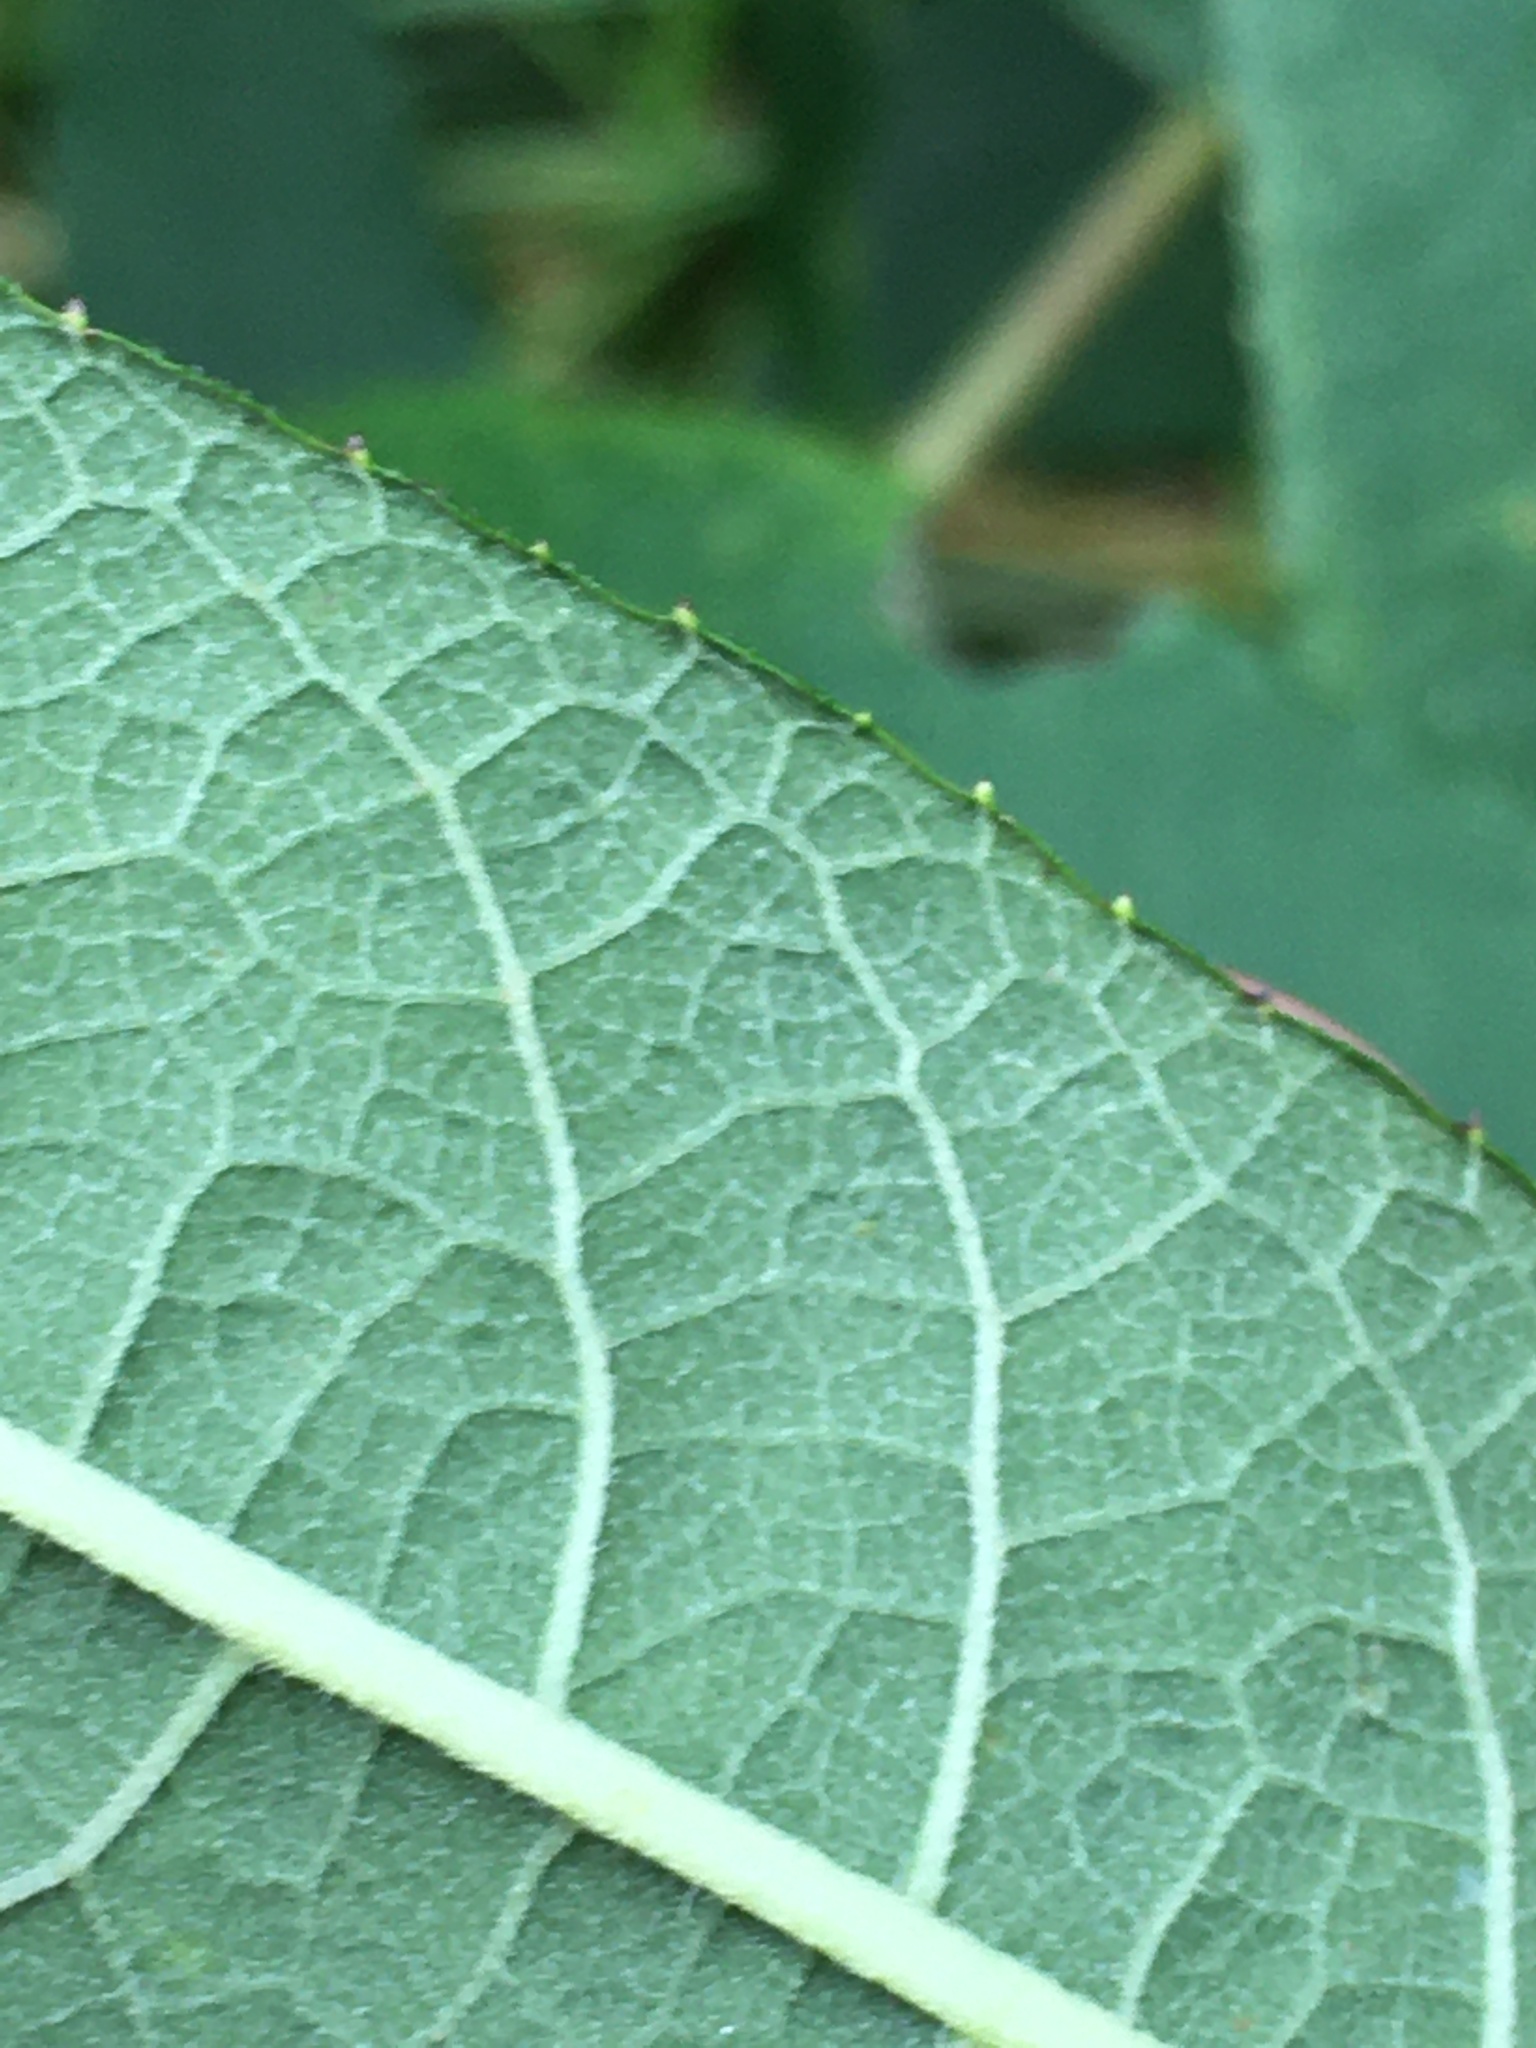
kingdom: Plantae
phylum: Tracheophyta
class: Magnoliopsida
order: Asterales
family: Asteraceae
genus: Vernonia
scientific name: Vernonia noveboracensis
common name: New york ironweed
